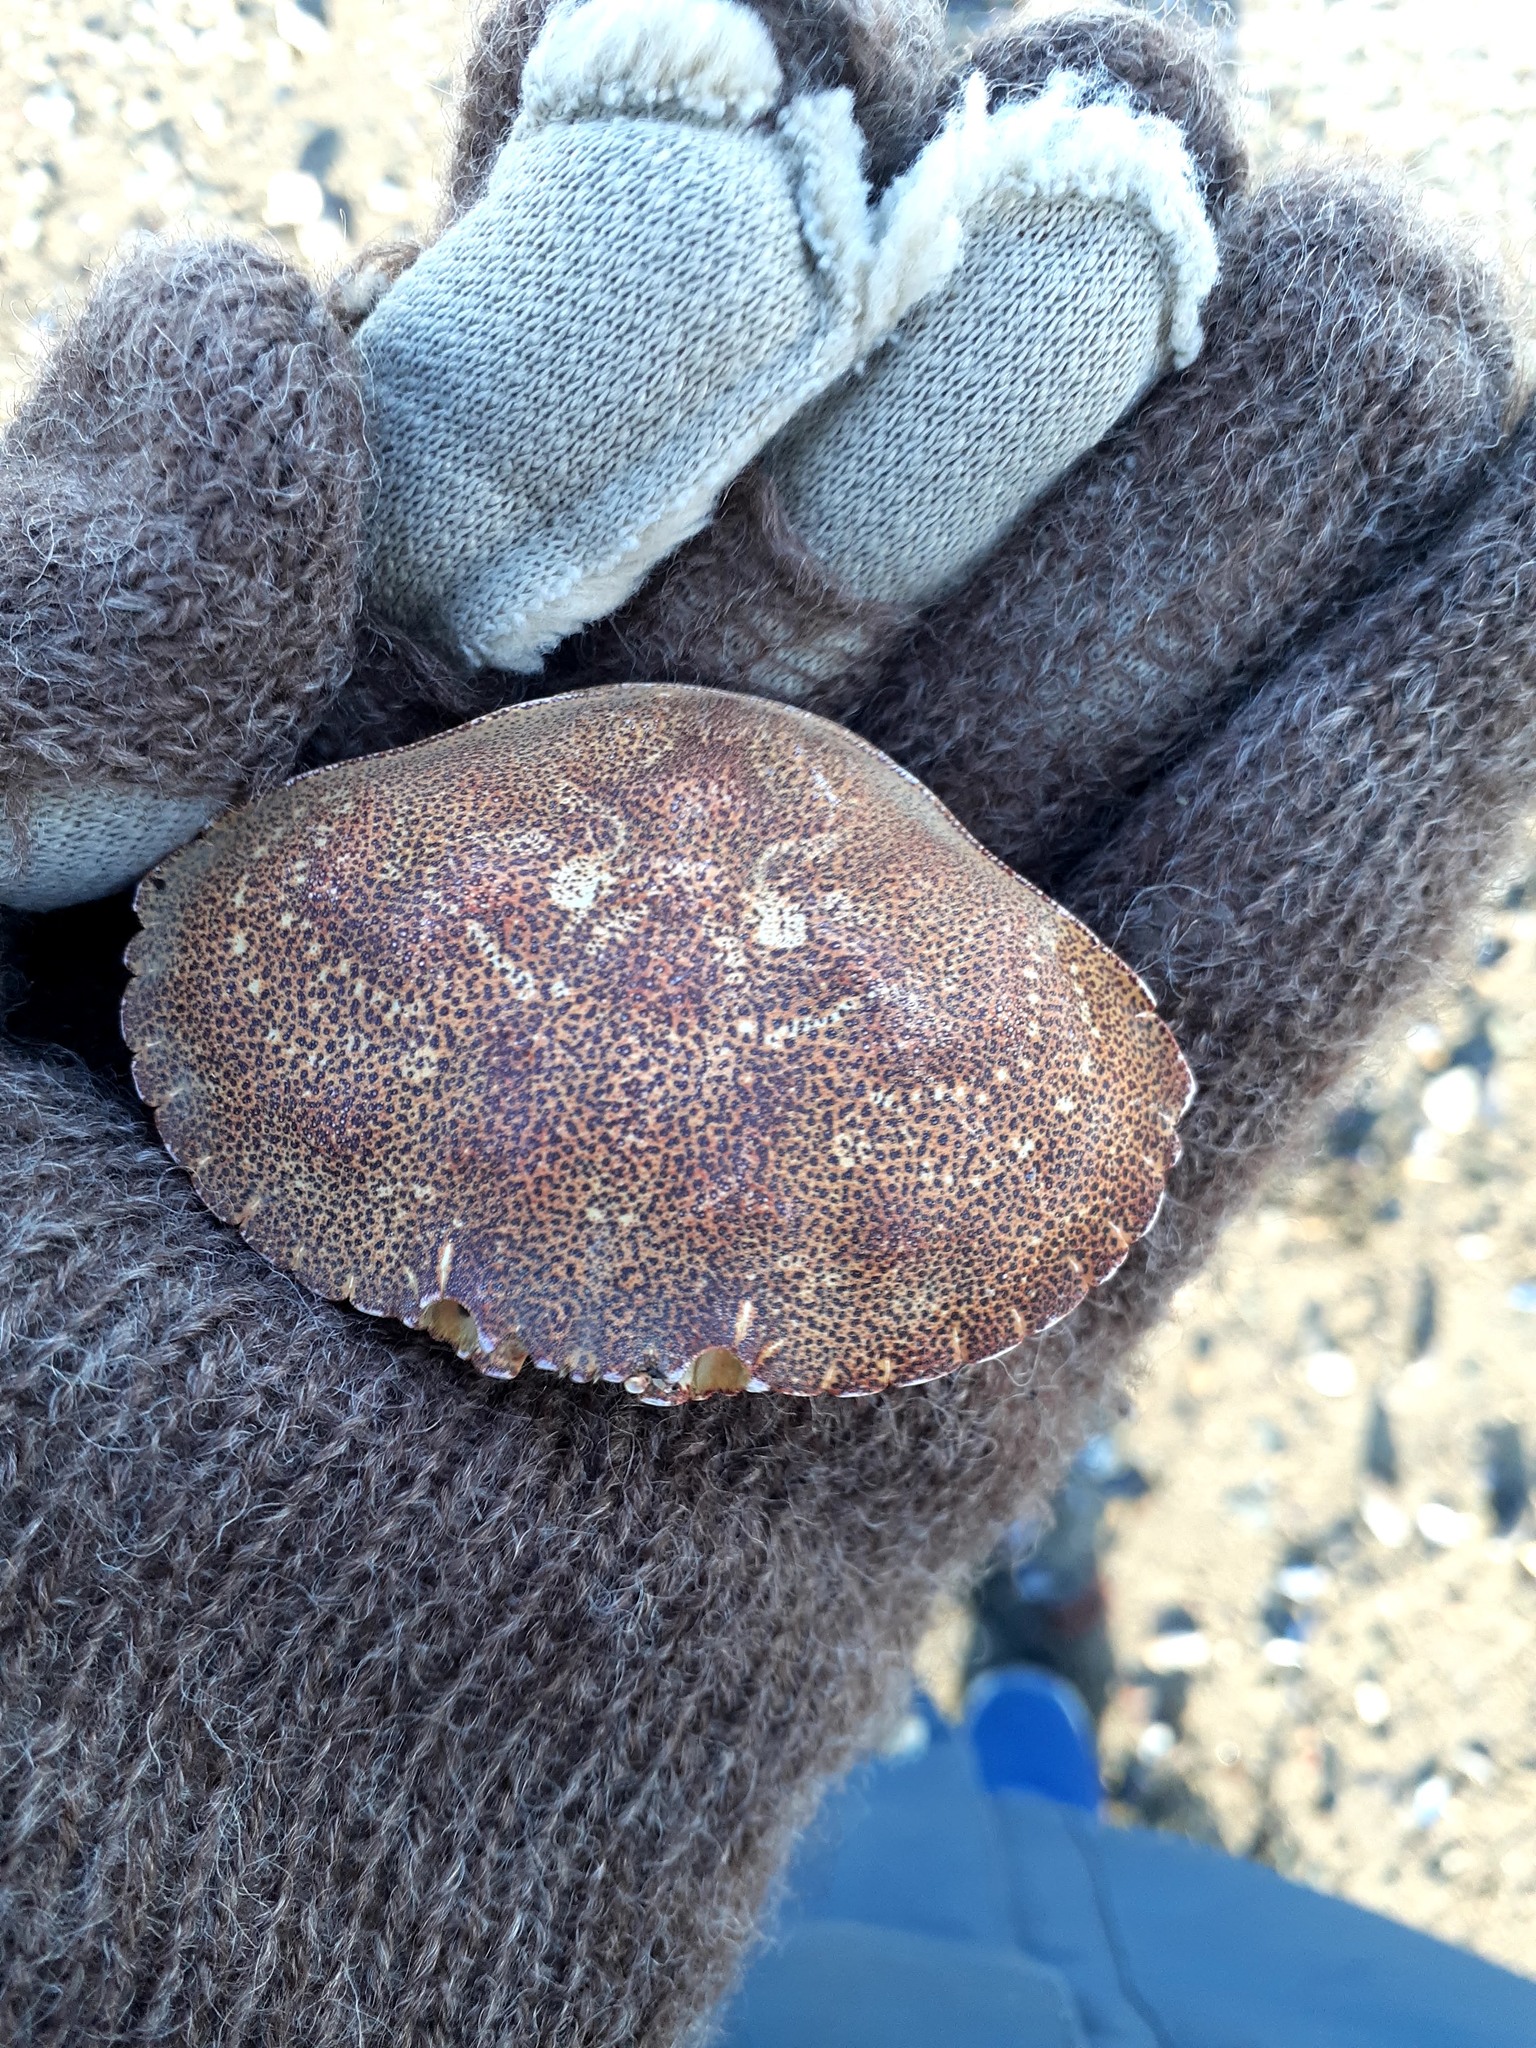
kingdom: Animalia
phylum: Arthropoda
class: Malacostraca
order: Decapoda
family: Cancridae
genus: Cancer
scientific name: Cancer irroratus
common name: Atlantic rock crab
